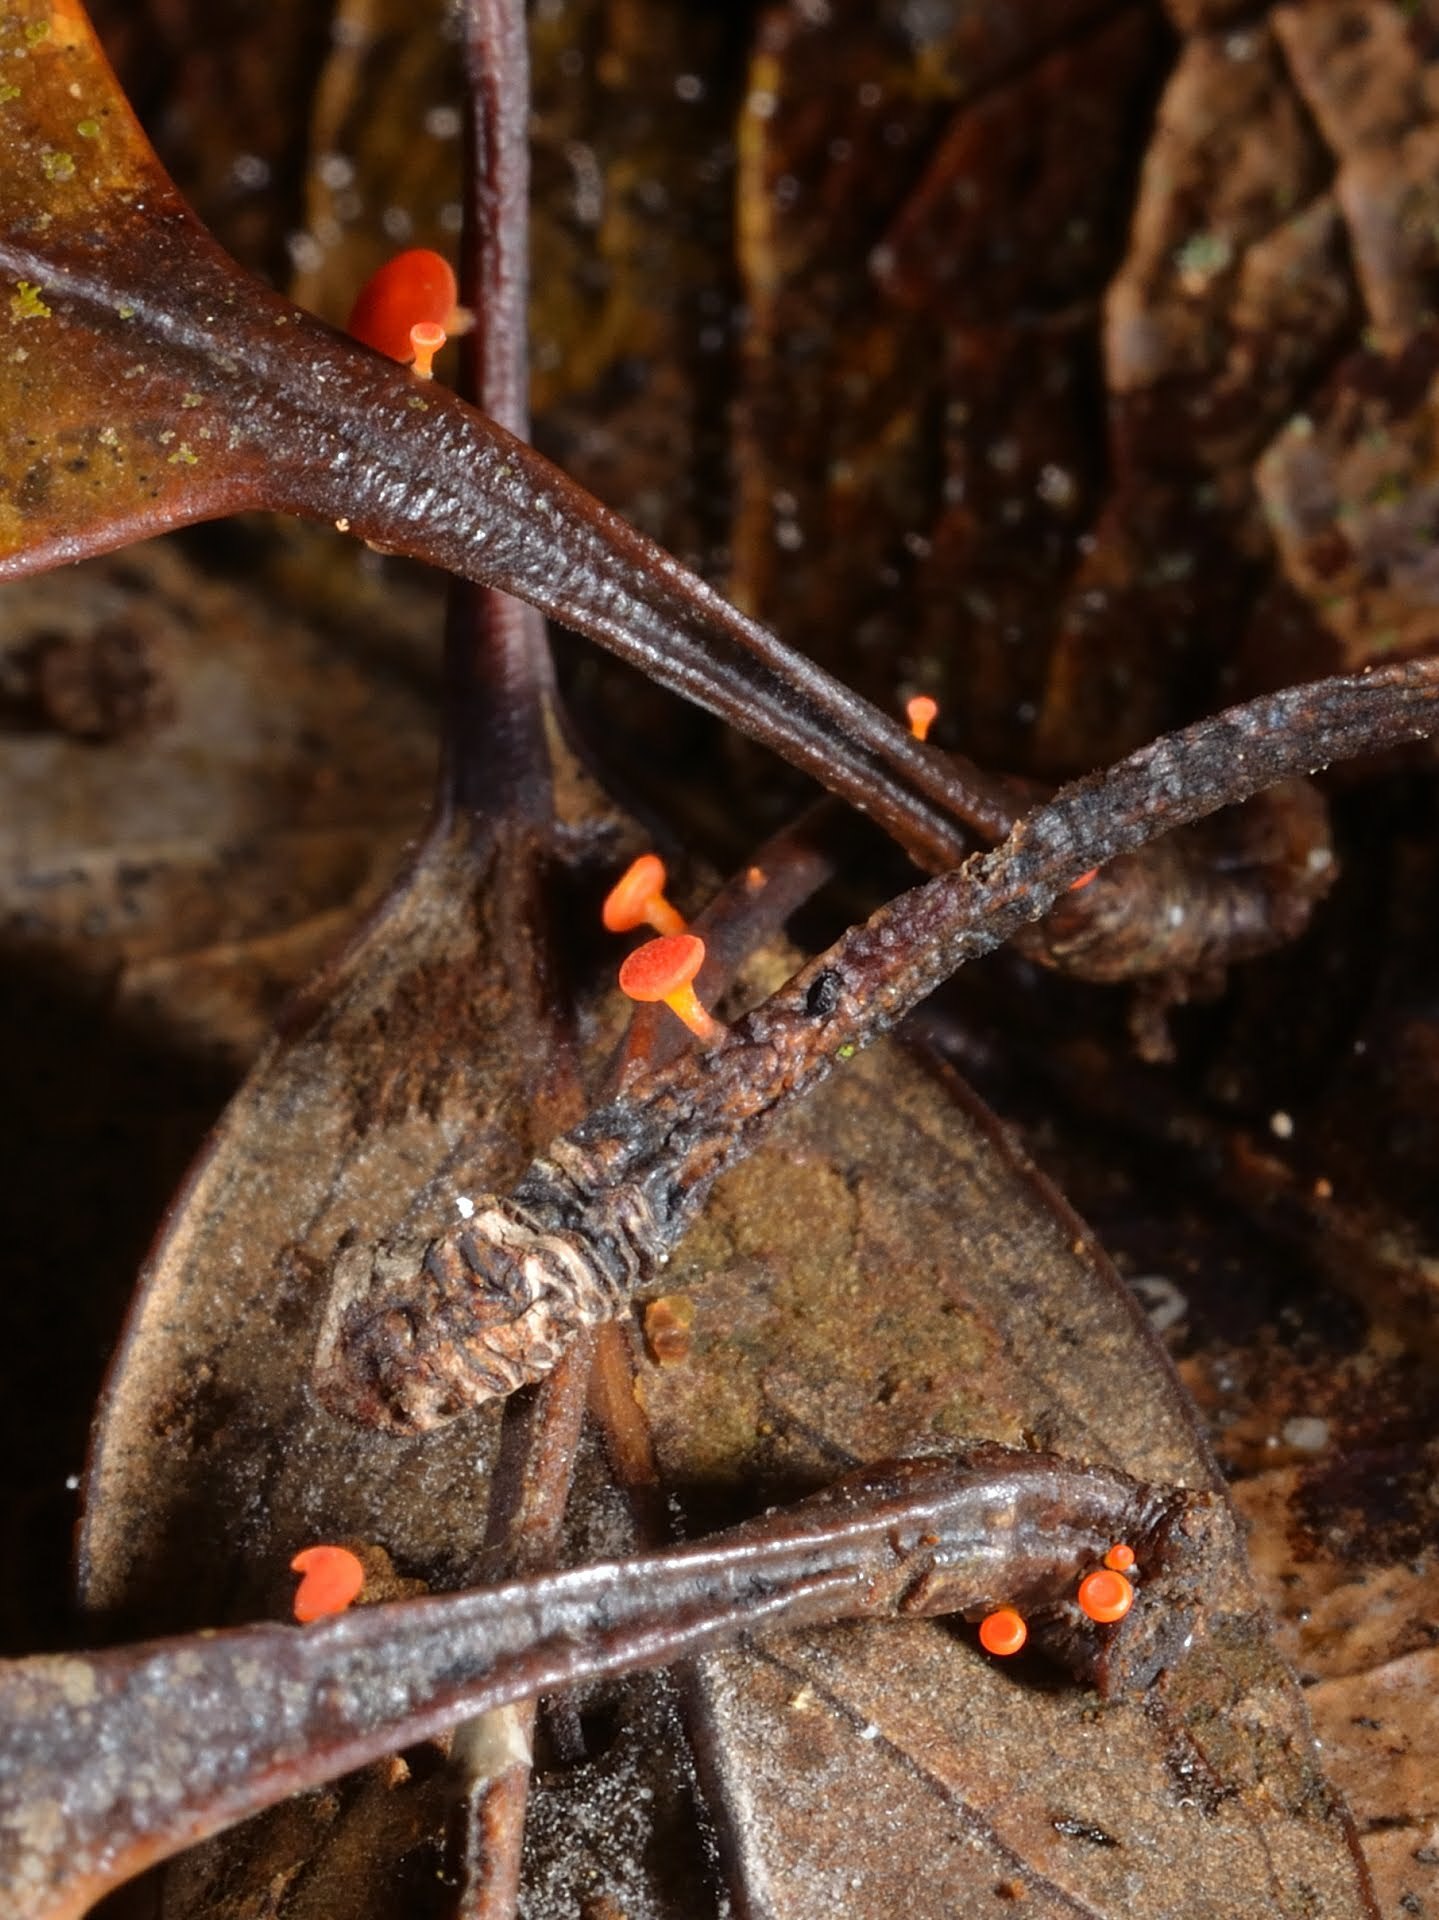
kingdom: Fungi
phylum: Ascomycota
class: Leotiomycetes
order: Helotiales
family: Helotiaceae
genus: Dicephalospora
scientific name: Dicephalospora huangshanica
